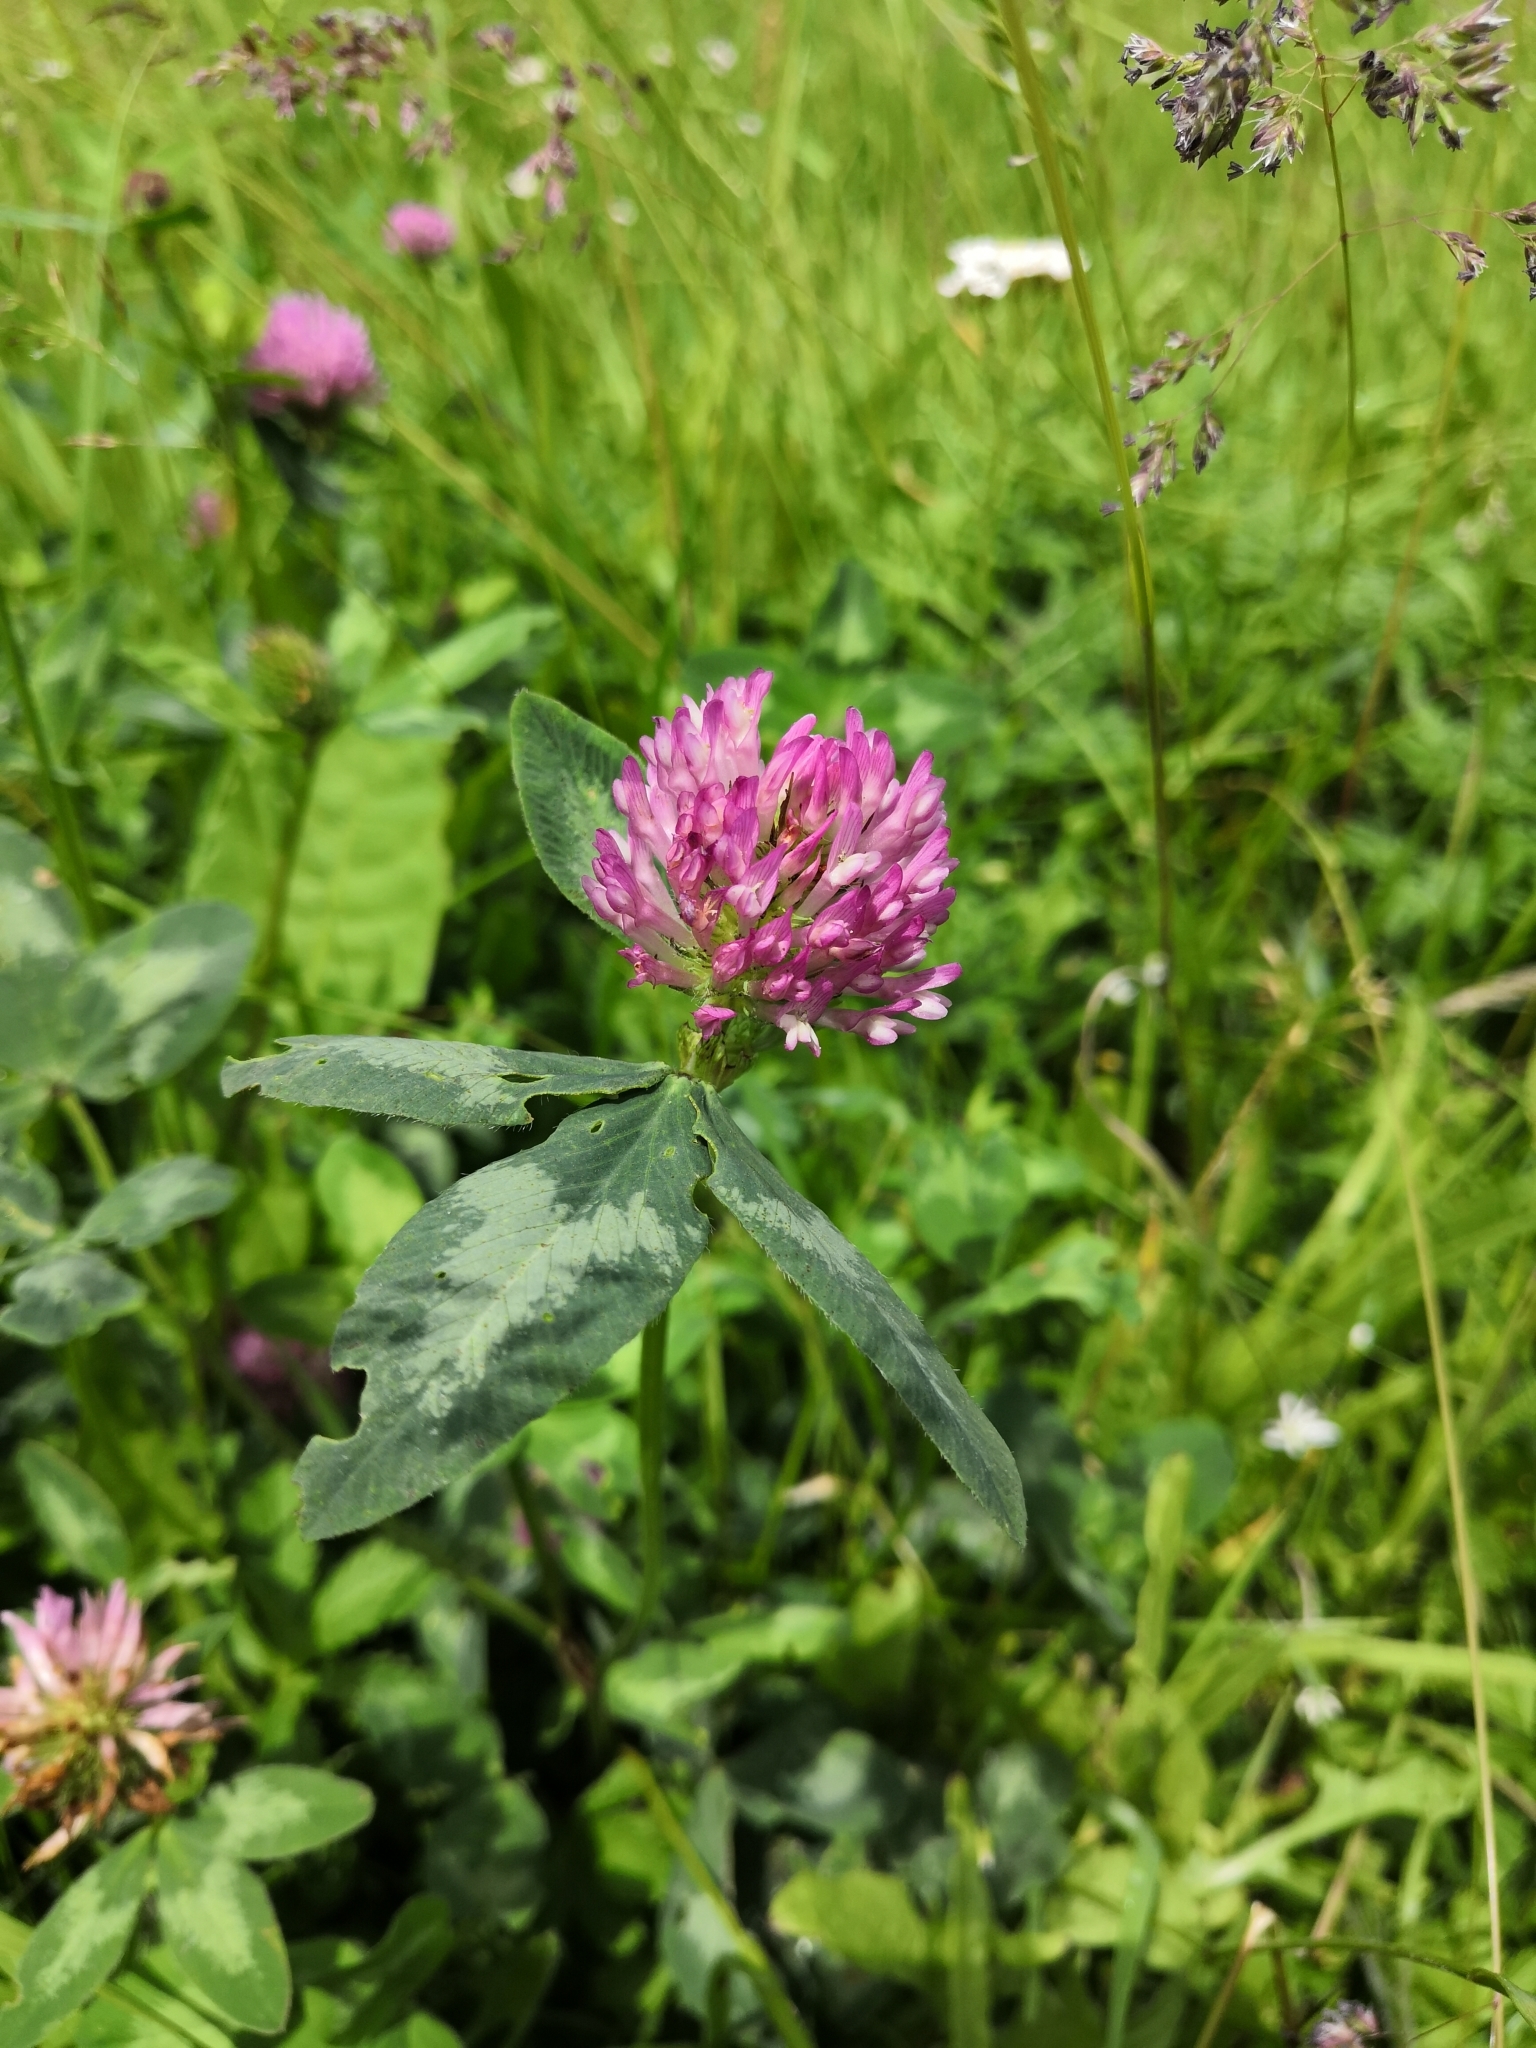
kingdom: Plantae
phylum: Tracheophyta
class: Magnoliopsida
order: Fabales
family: Fabaceae
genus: Trifolium
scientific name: Trifolium pratense
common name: Red clover
